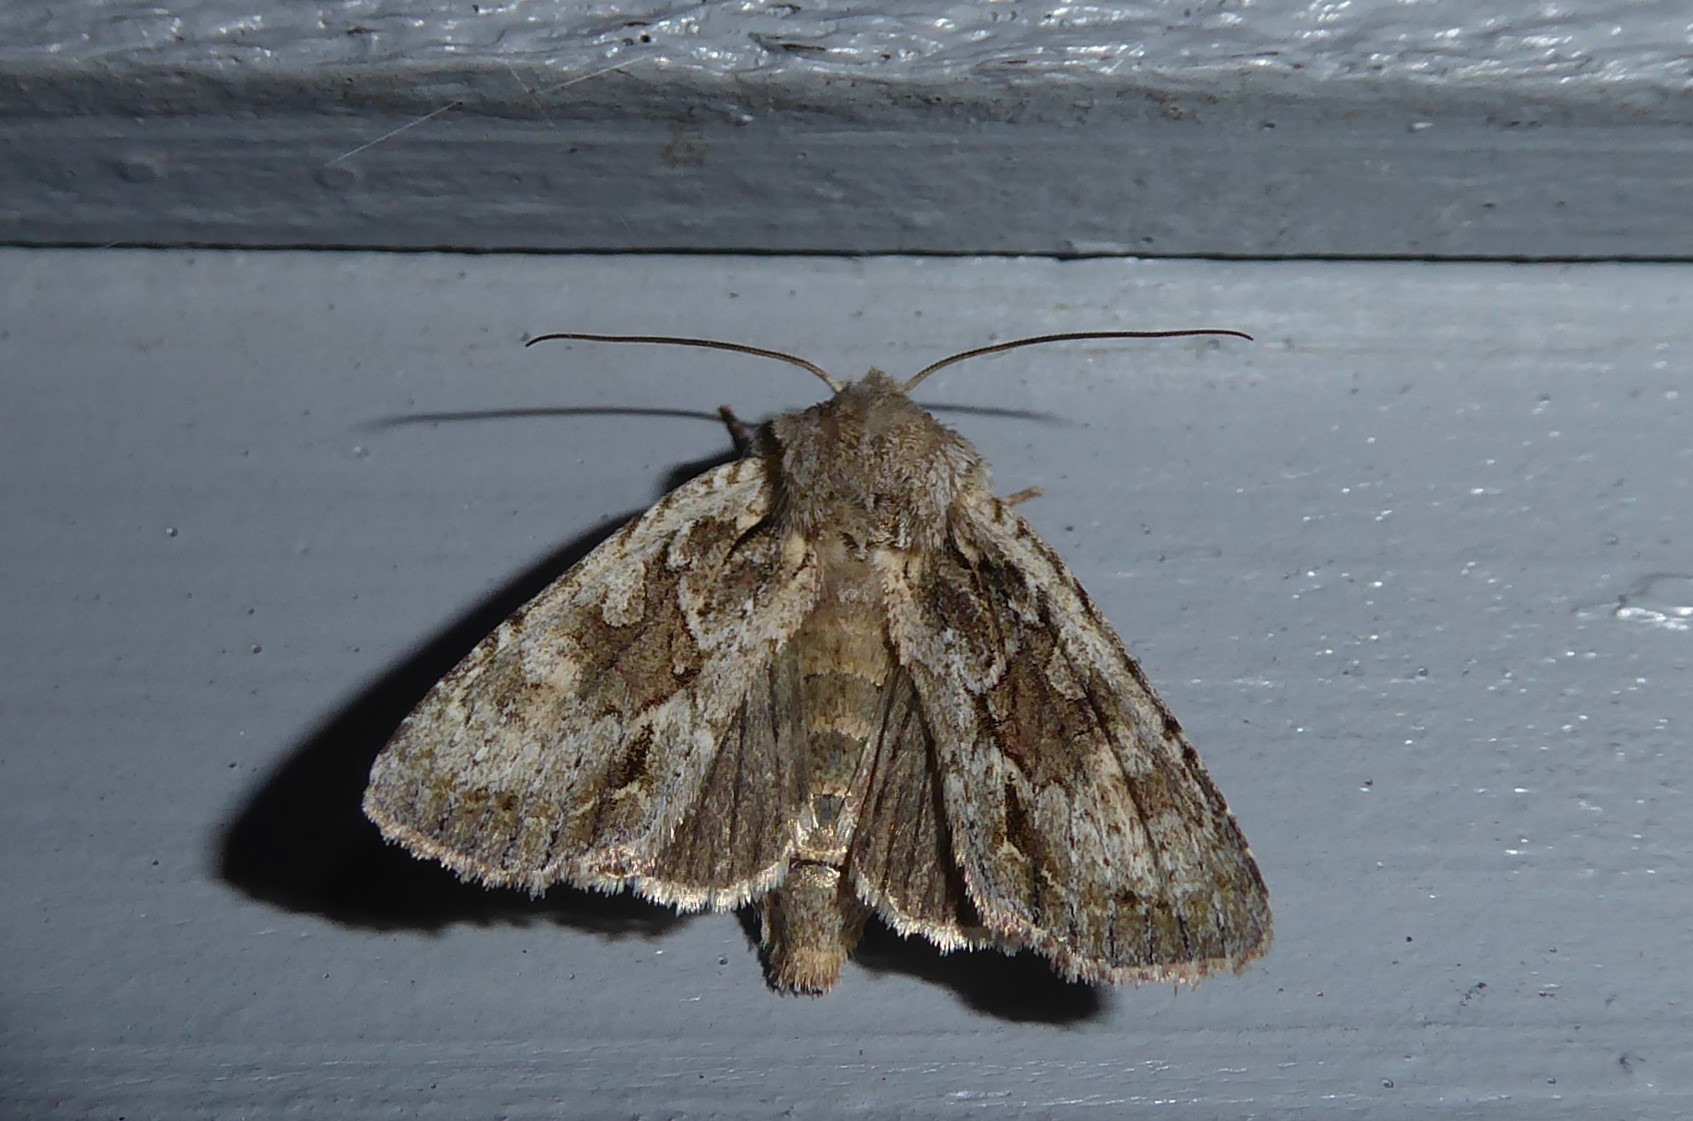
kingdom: Animalia
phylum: Arthropoda
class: Insecta
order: Lepidoptera
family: Noctuidae
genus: Ichneutica
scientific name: Ichneutica mutans
